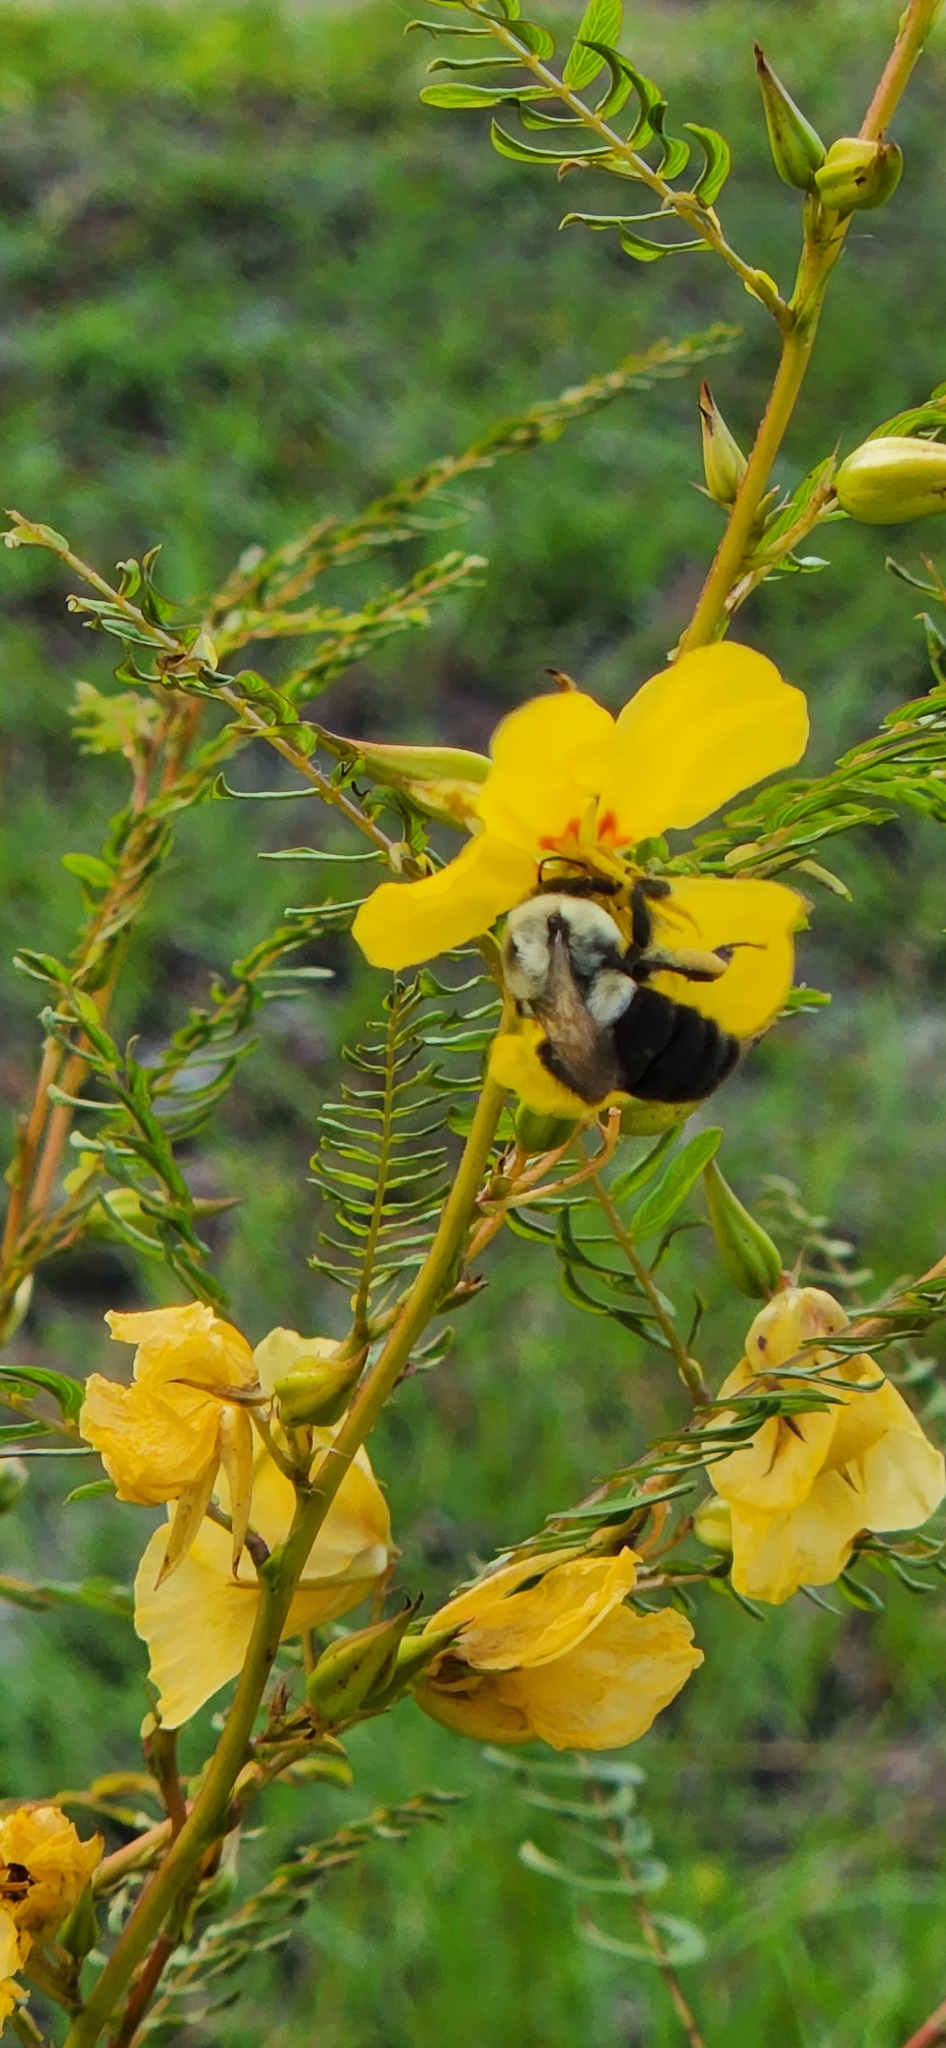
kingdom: Animalia
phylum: Arthropoda
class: Insecta
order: Hymenoptera
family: Apidae
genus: Bombus
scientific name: Bombus impatiens
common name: Common eastern bumble bee
